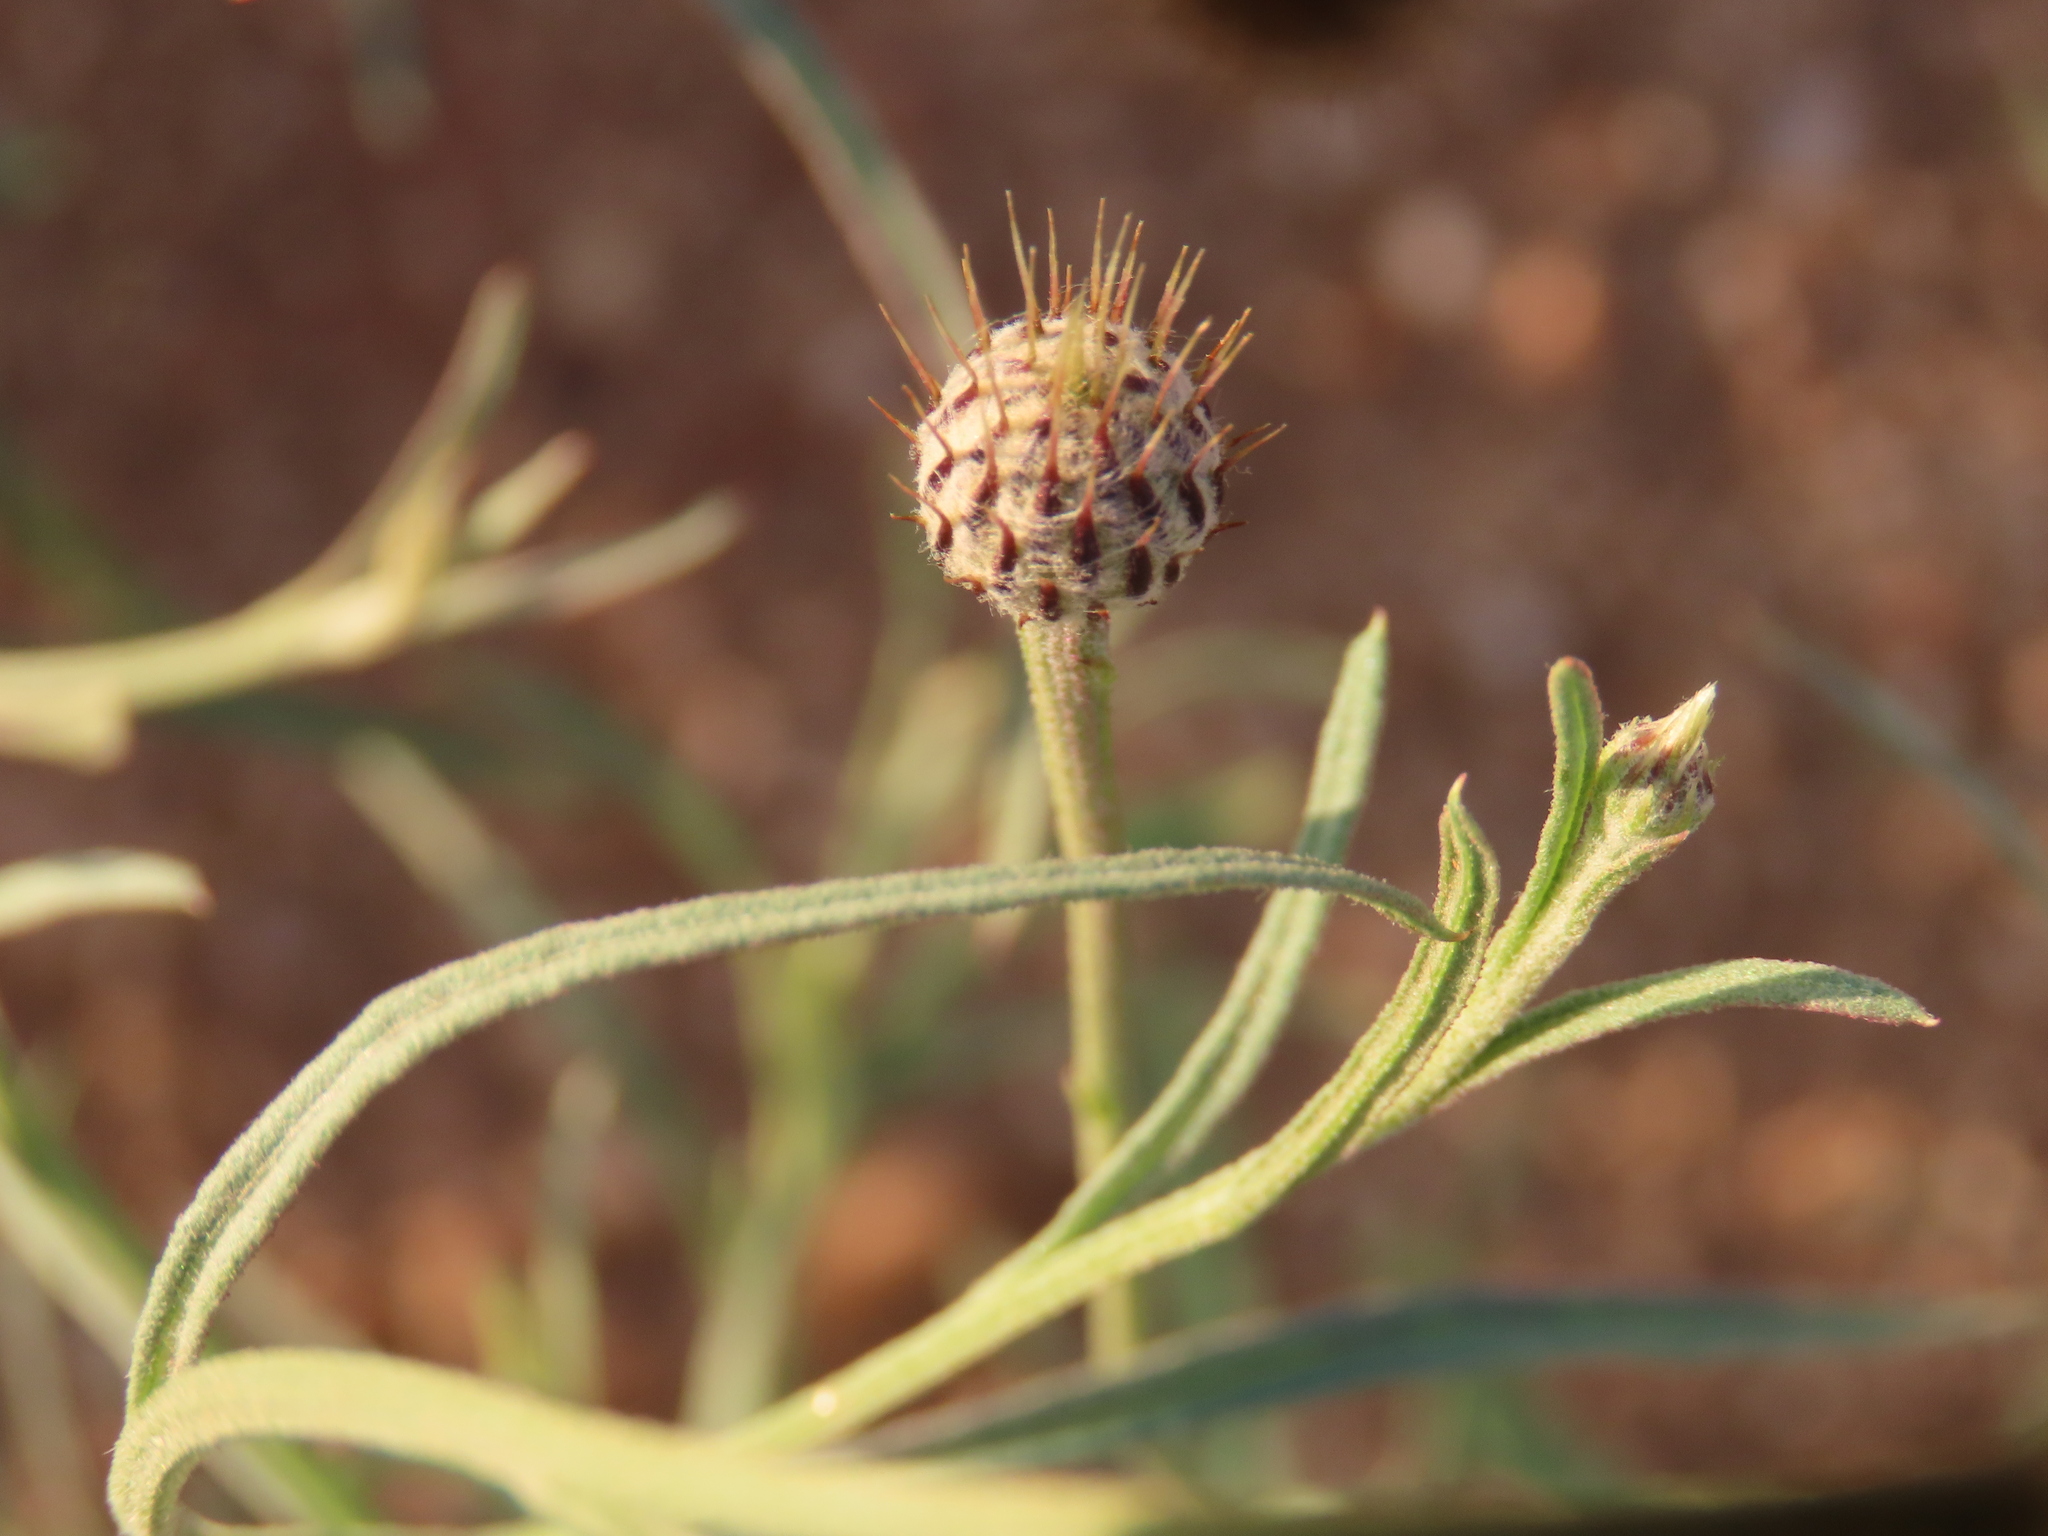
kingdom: Plantae
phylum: Tracheophyta
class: Magnoliopsida
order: Asterales
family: Asteraceae
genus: Parapolydora
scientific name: Parapolydora fastigiata
